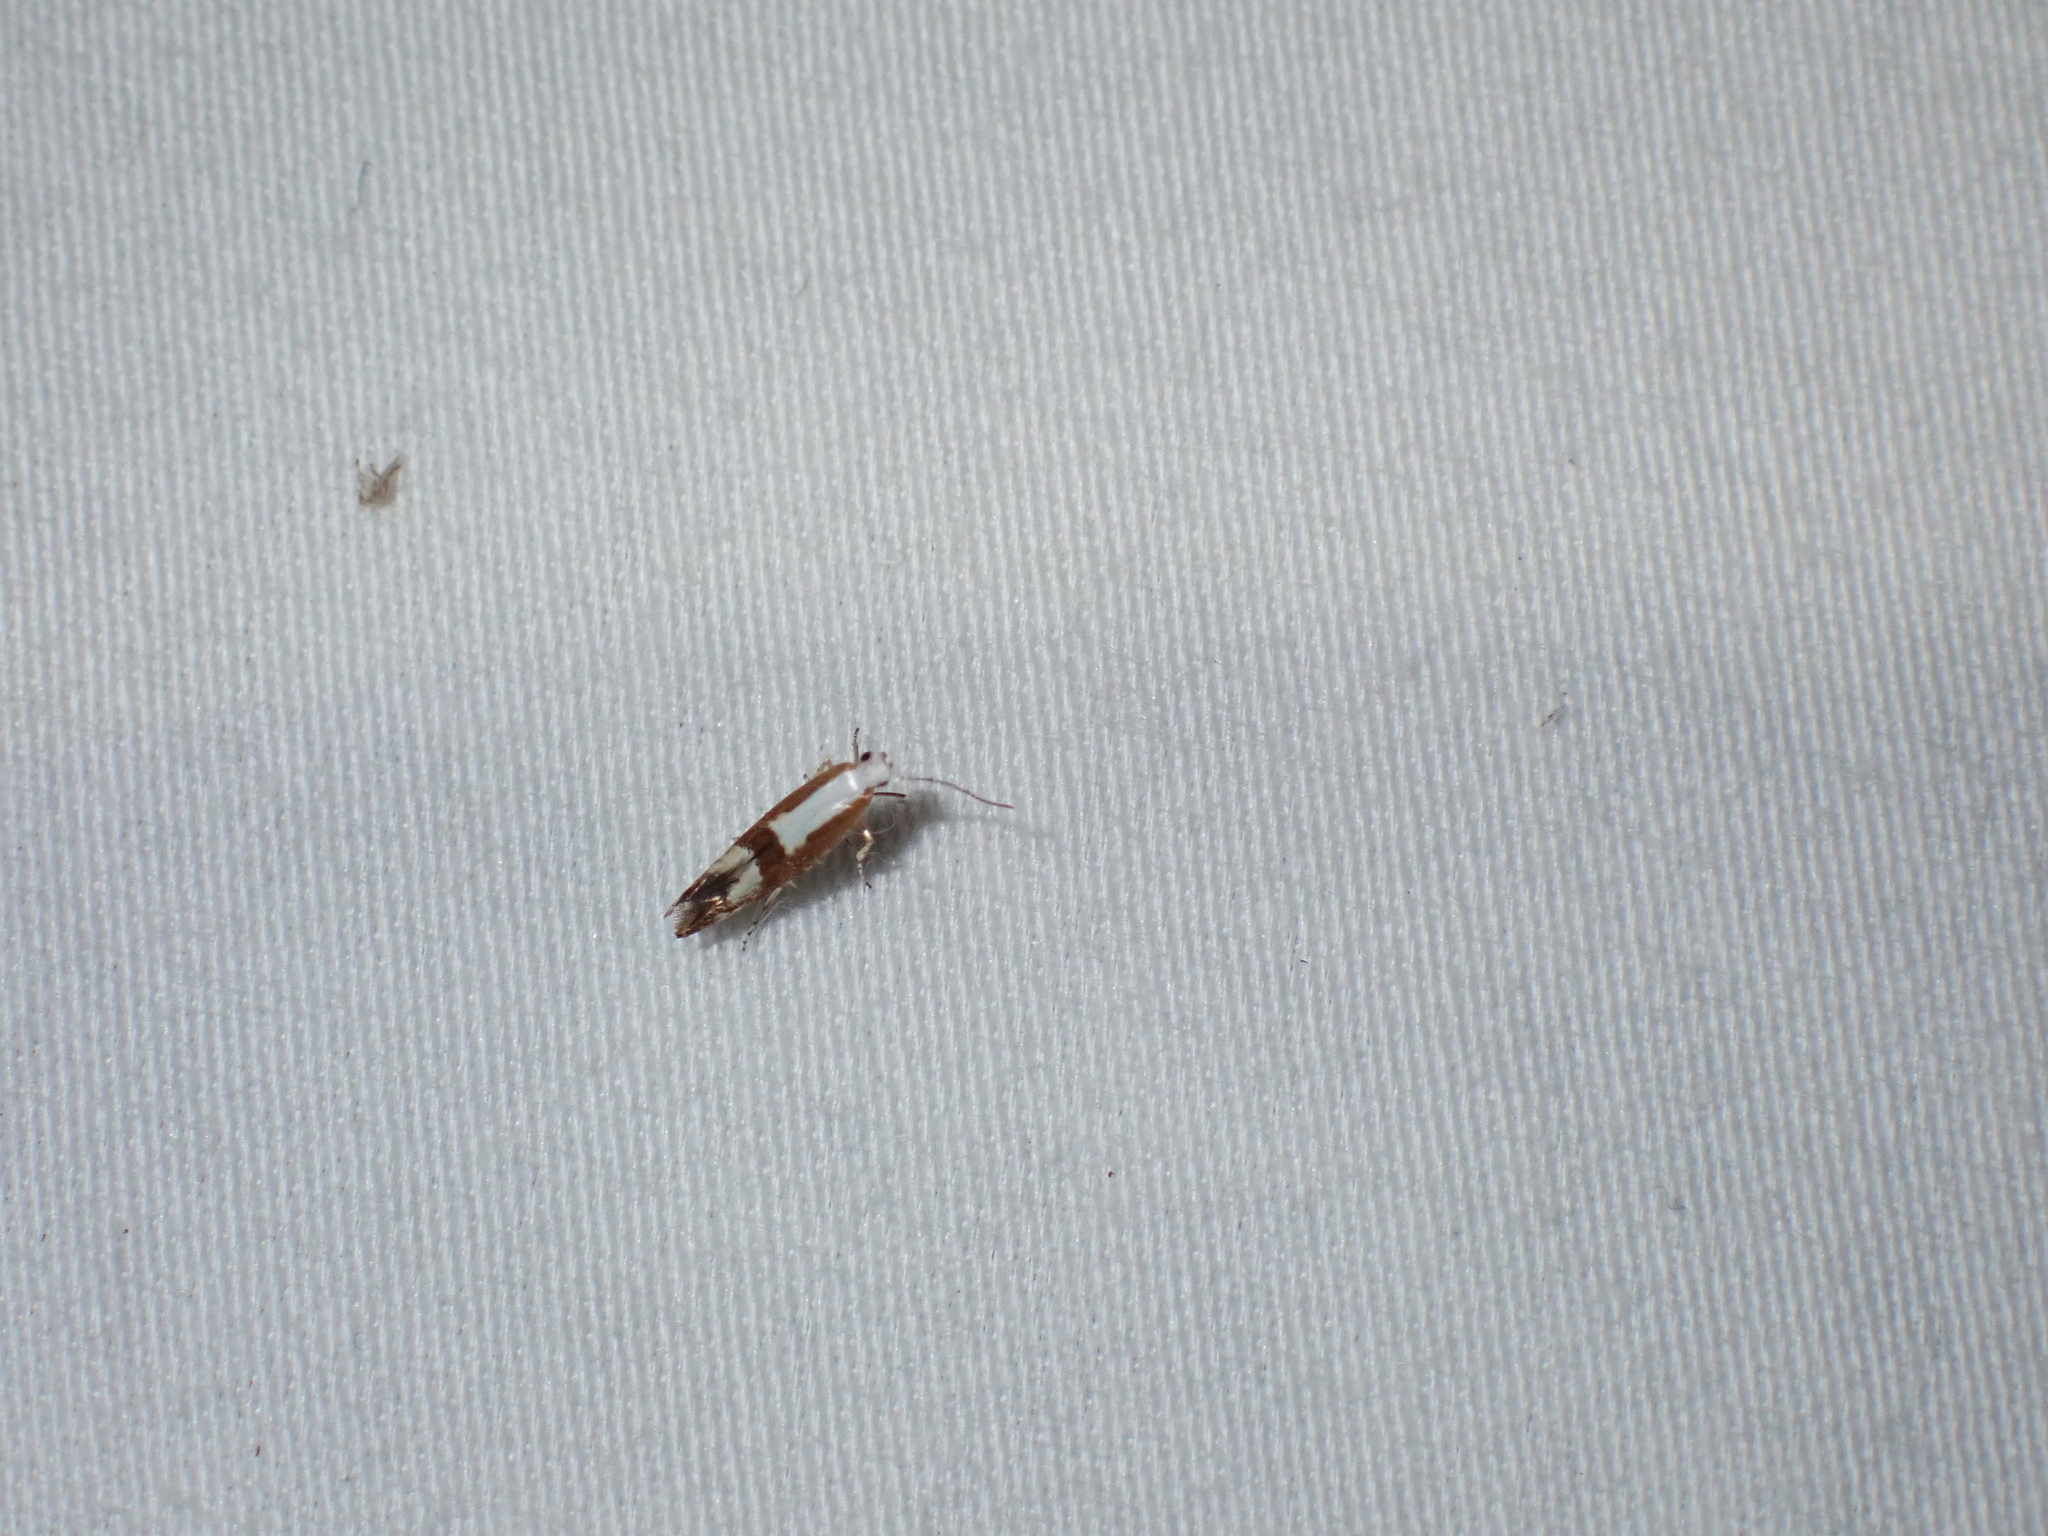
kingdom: Animalia
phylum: Arthropoda
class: Insecta
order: Lepidoptera
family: Argyresthiidae
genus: Argyresthia
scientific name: Argyresthia pruniella
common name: Cherry fruit moth
